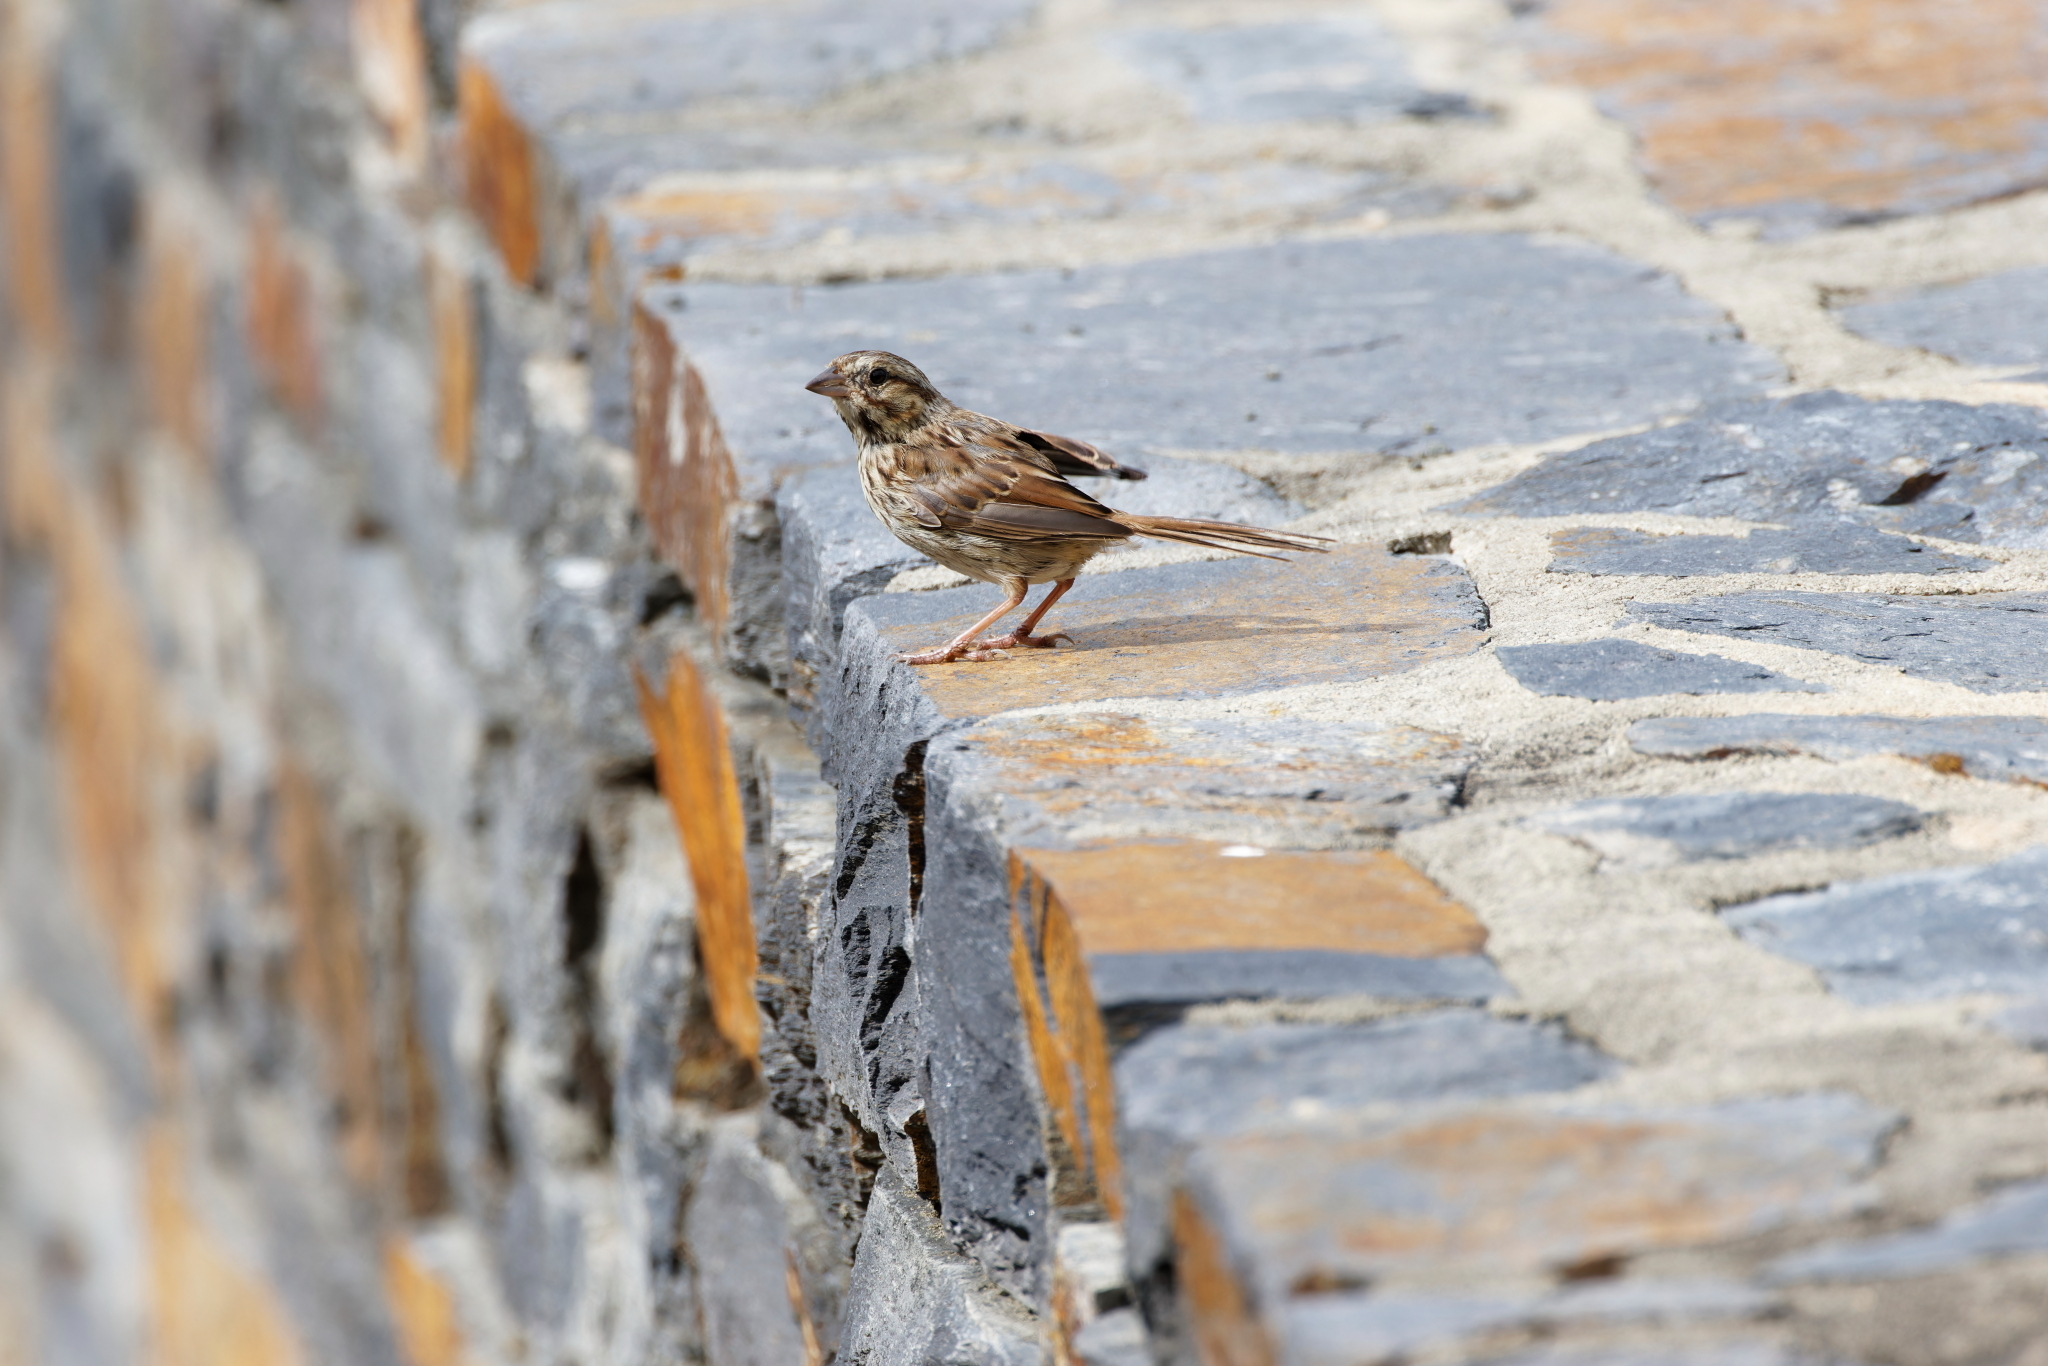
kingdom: Animalia
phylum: Chordata
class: Aves
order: Passeriformes
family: Passerellidae
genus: Melospiza
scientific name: Melospiza melodia
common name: Song sparrow
